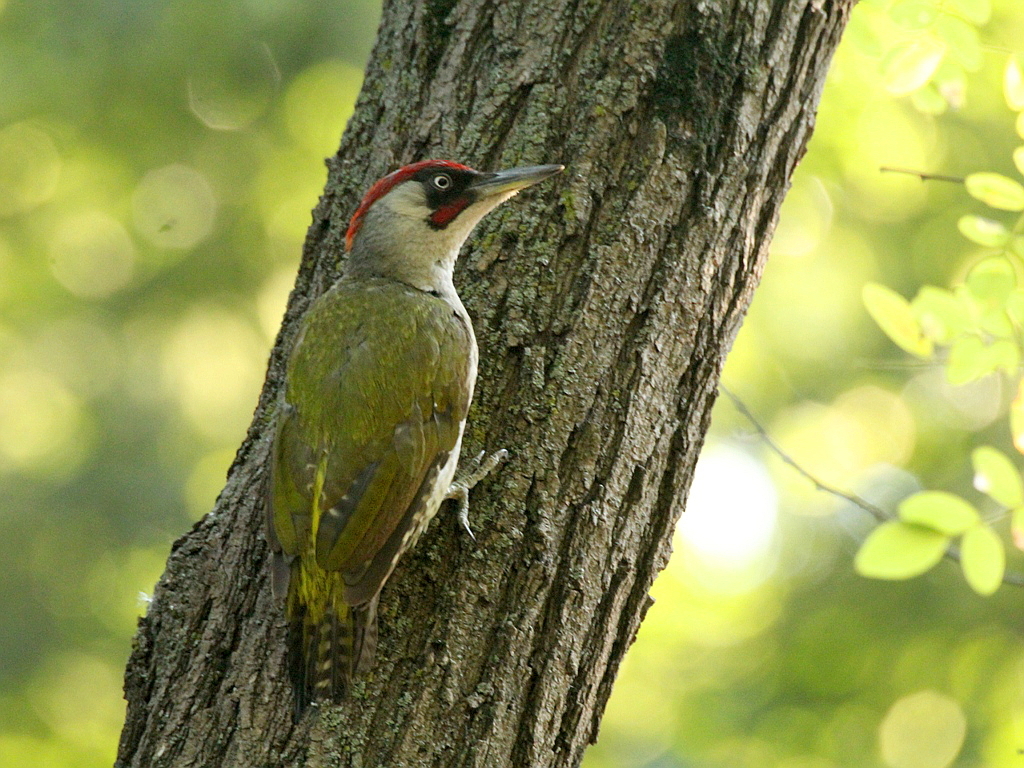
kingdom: Animalia
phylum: Chordata
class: Aves
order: Piciformes
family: Picidae
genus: Picus
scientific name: Picus viridis
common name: European green woodpecker
